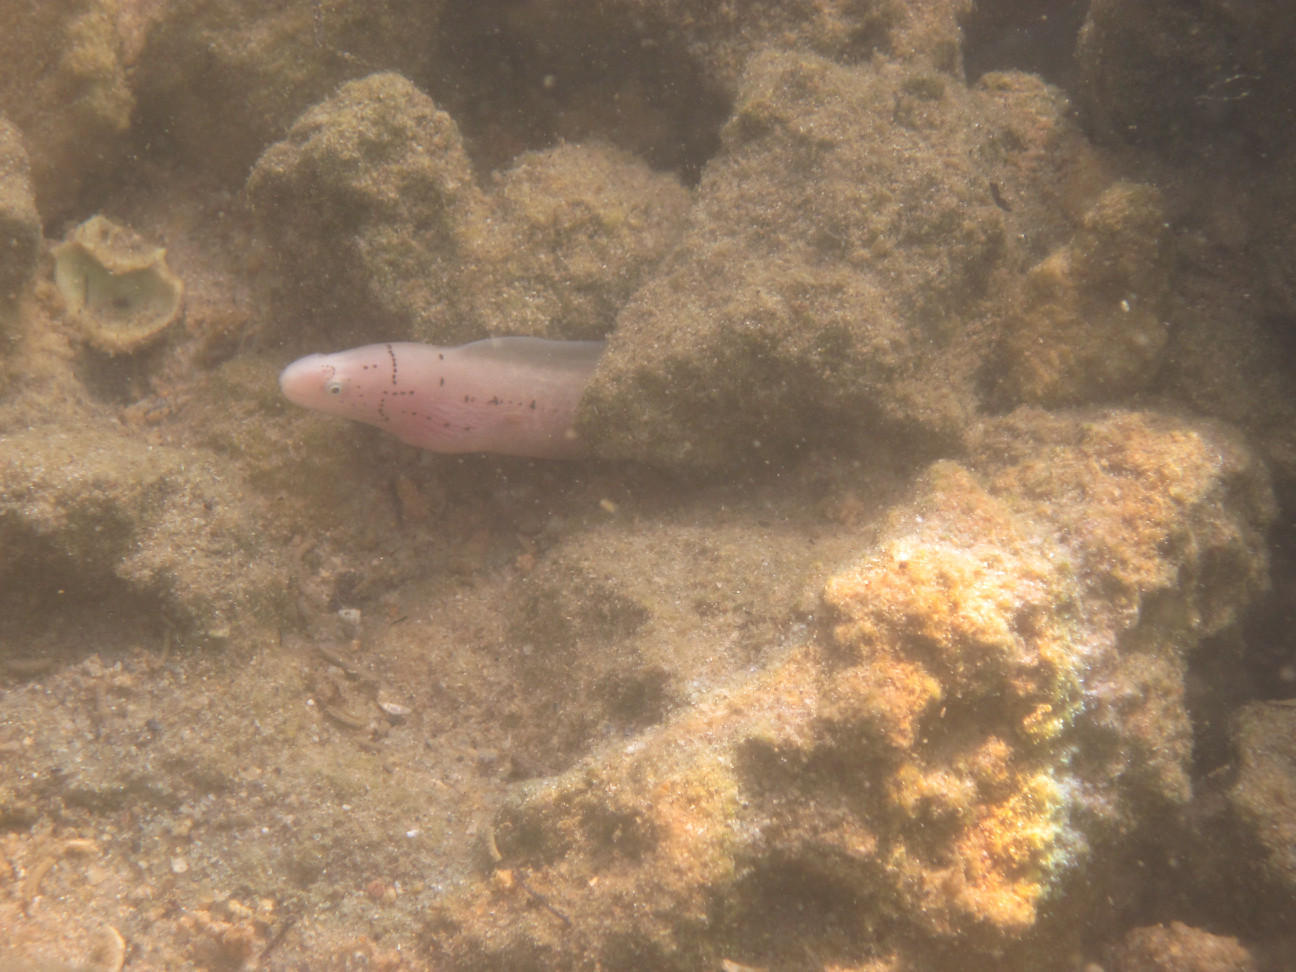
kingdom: Animalia
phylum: Chordata
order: Anguilliformes
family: Muraenidae
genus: Gymnothorax
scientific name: Gymnothorax griseus
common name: Geometric moray
